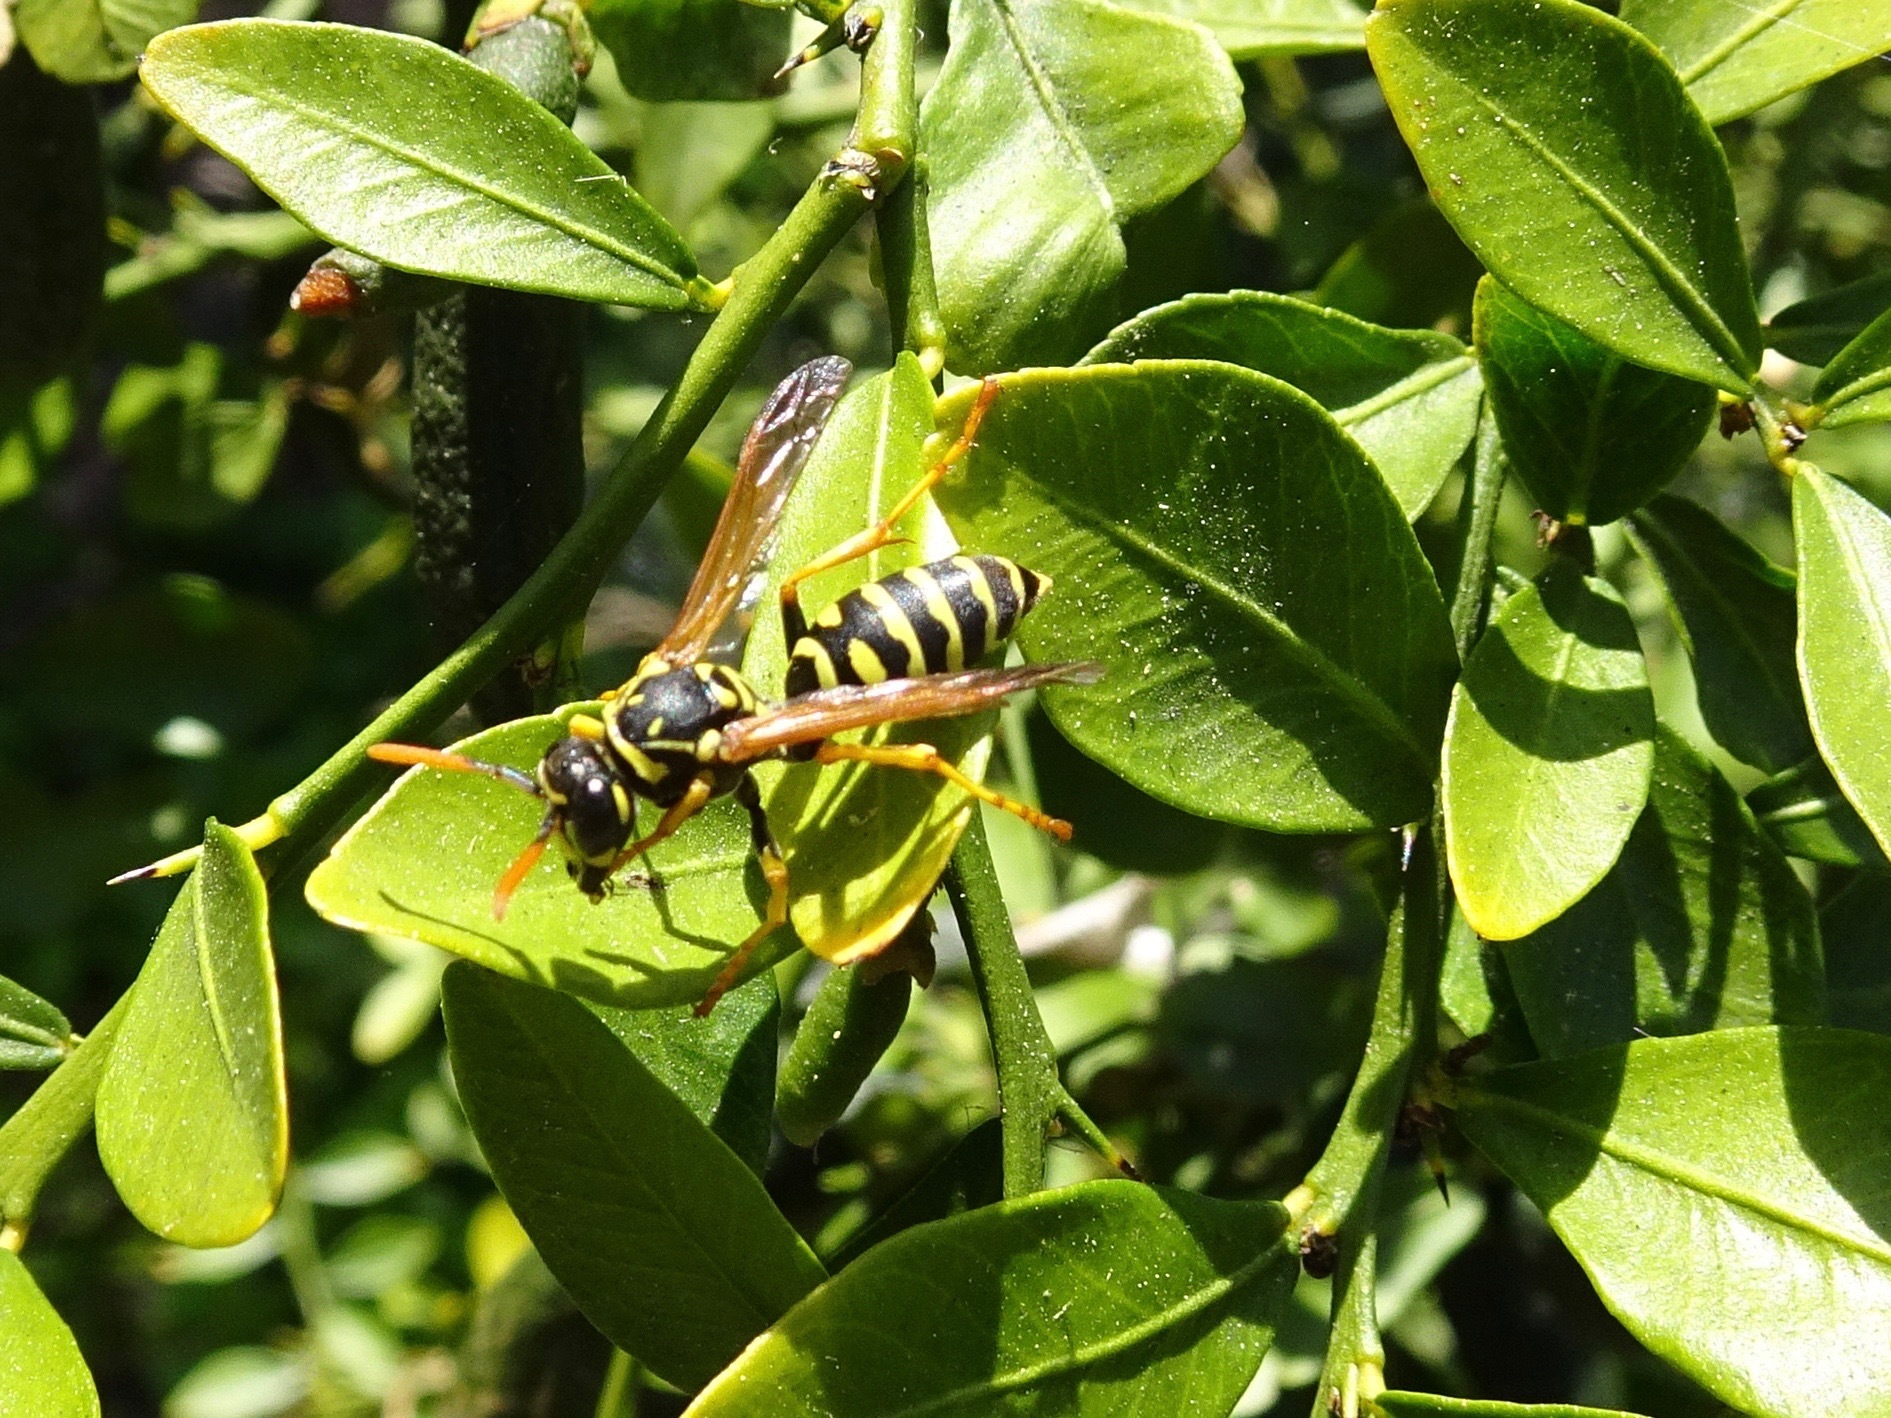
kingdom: Animalia
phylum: Arthropoda
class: Insecta
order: Hymenoptera
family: Eumenidae
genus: Polistes
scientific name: Polistes dominula
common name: Paper wasp
